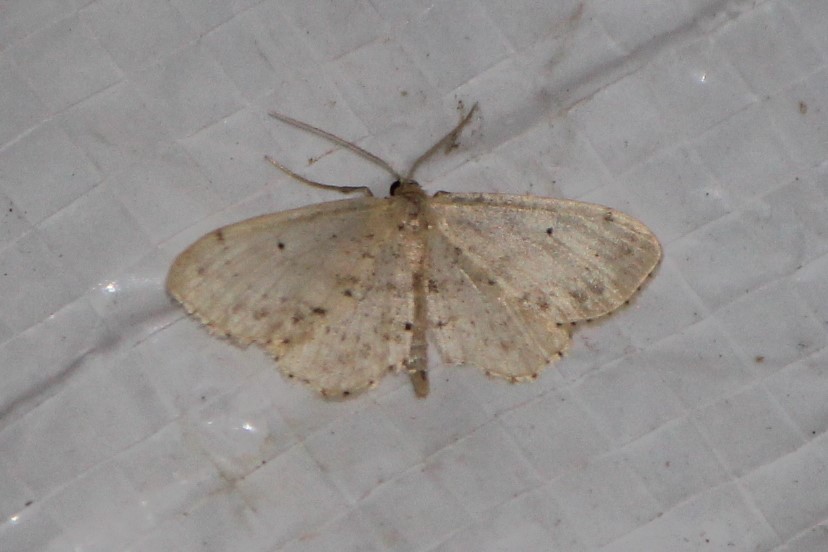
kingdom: Animalia
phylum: Arthropoda
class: Insecta
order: Lepidoptera
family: Geometridae
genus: Idaea
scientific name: Idaea dimidiata
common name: Single-dotted wave
